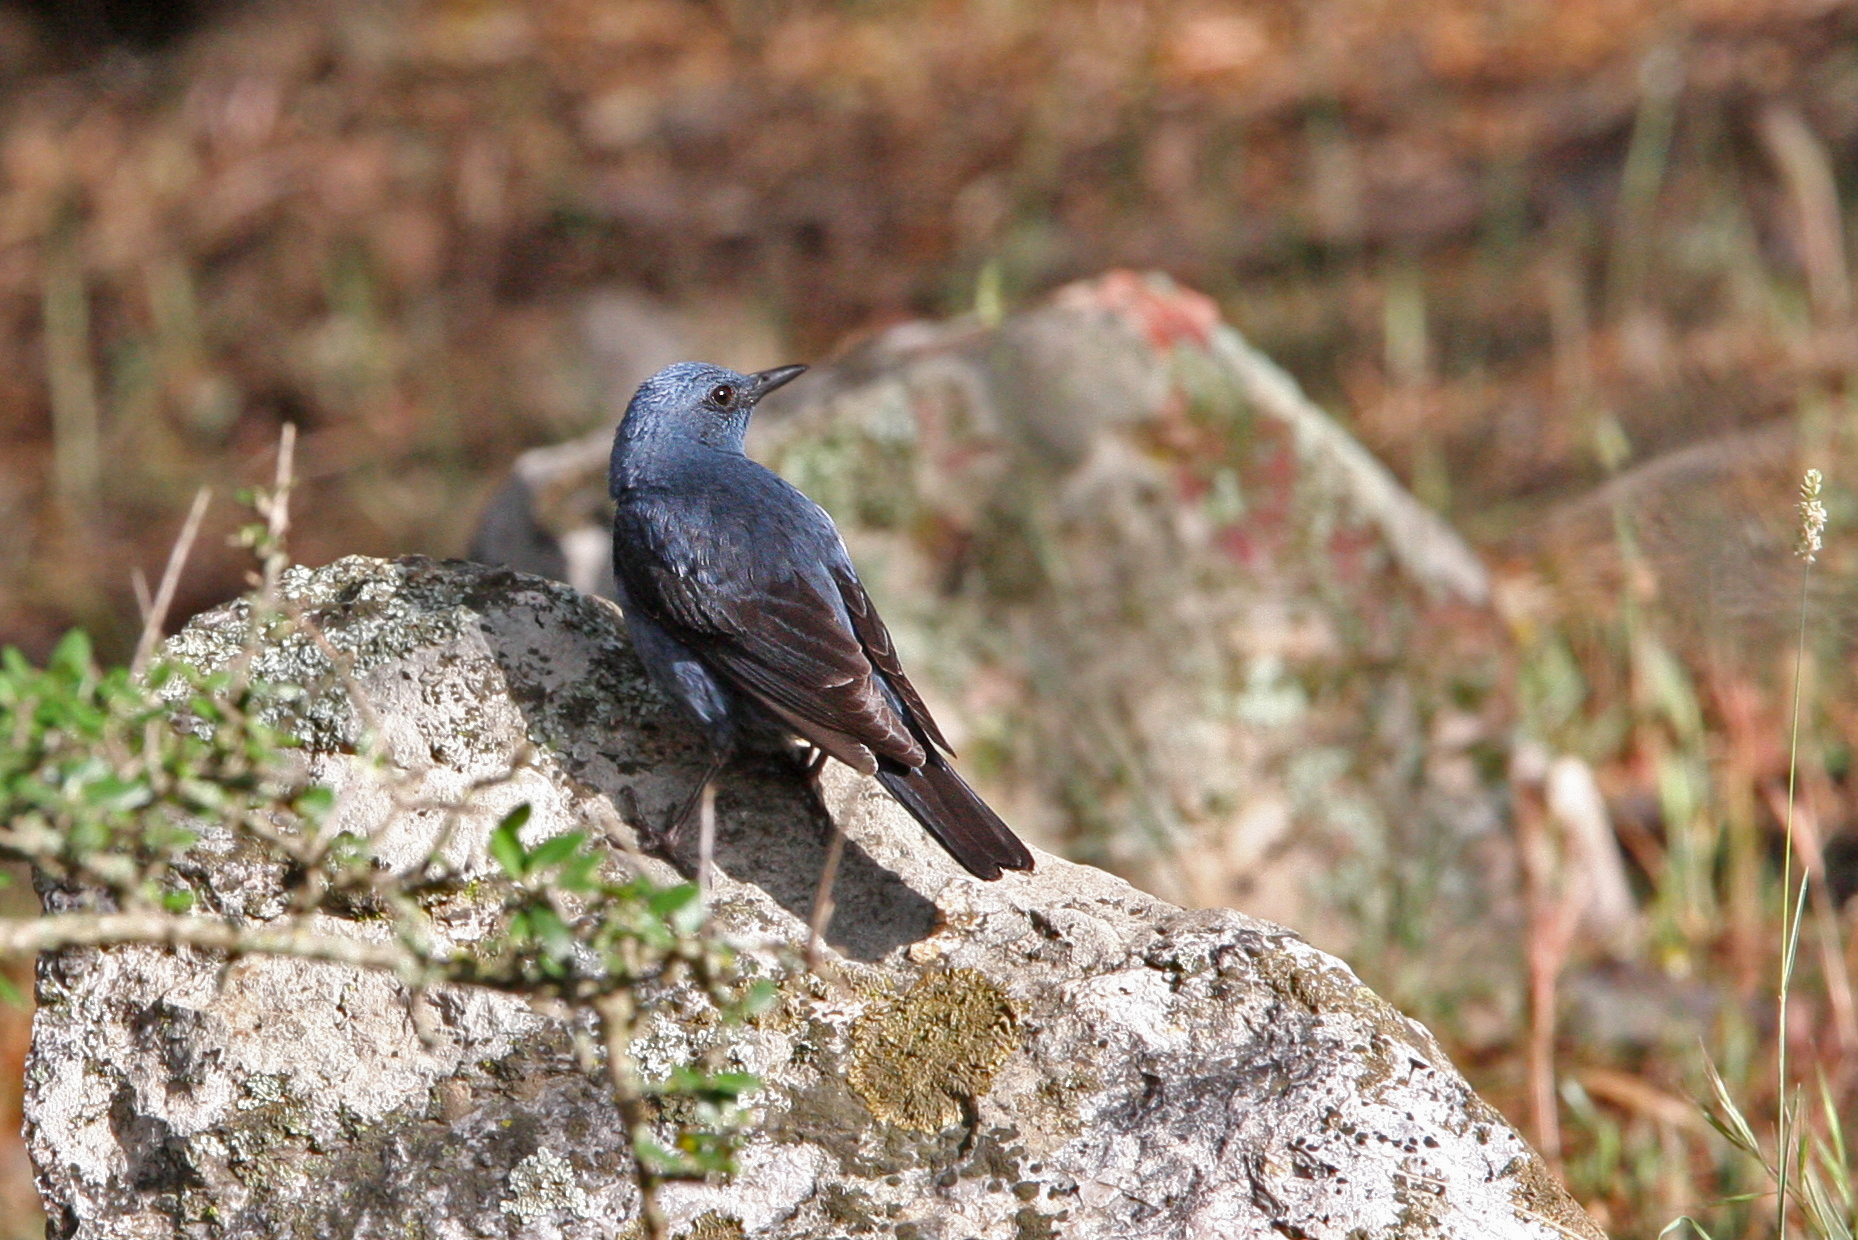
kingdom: Animalia
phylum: Chordata
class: Aves
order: Passeriformes
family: Muscicapidae
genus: Monticola
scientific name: Monticola solitarius
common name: Blue rock thrush
